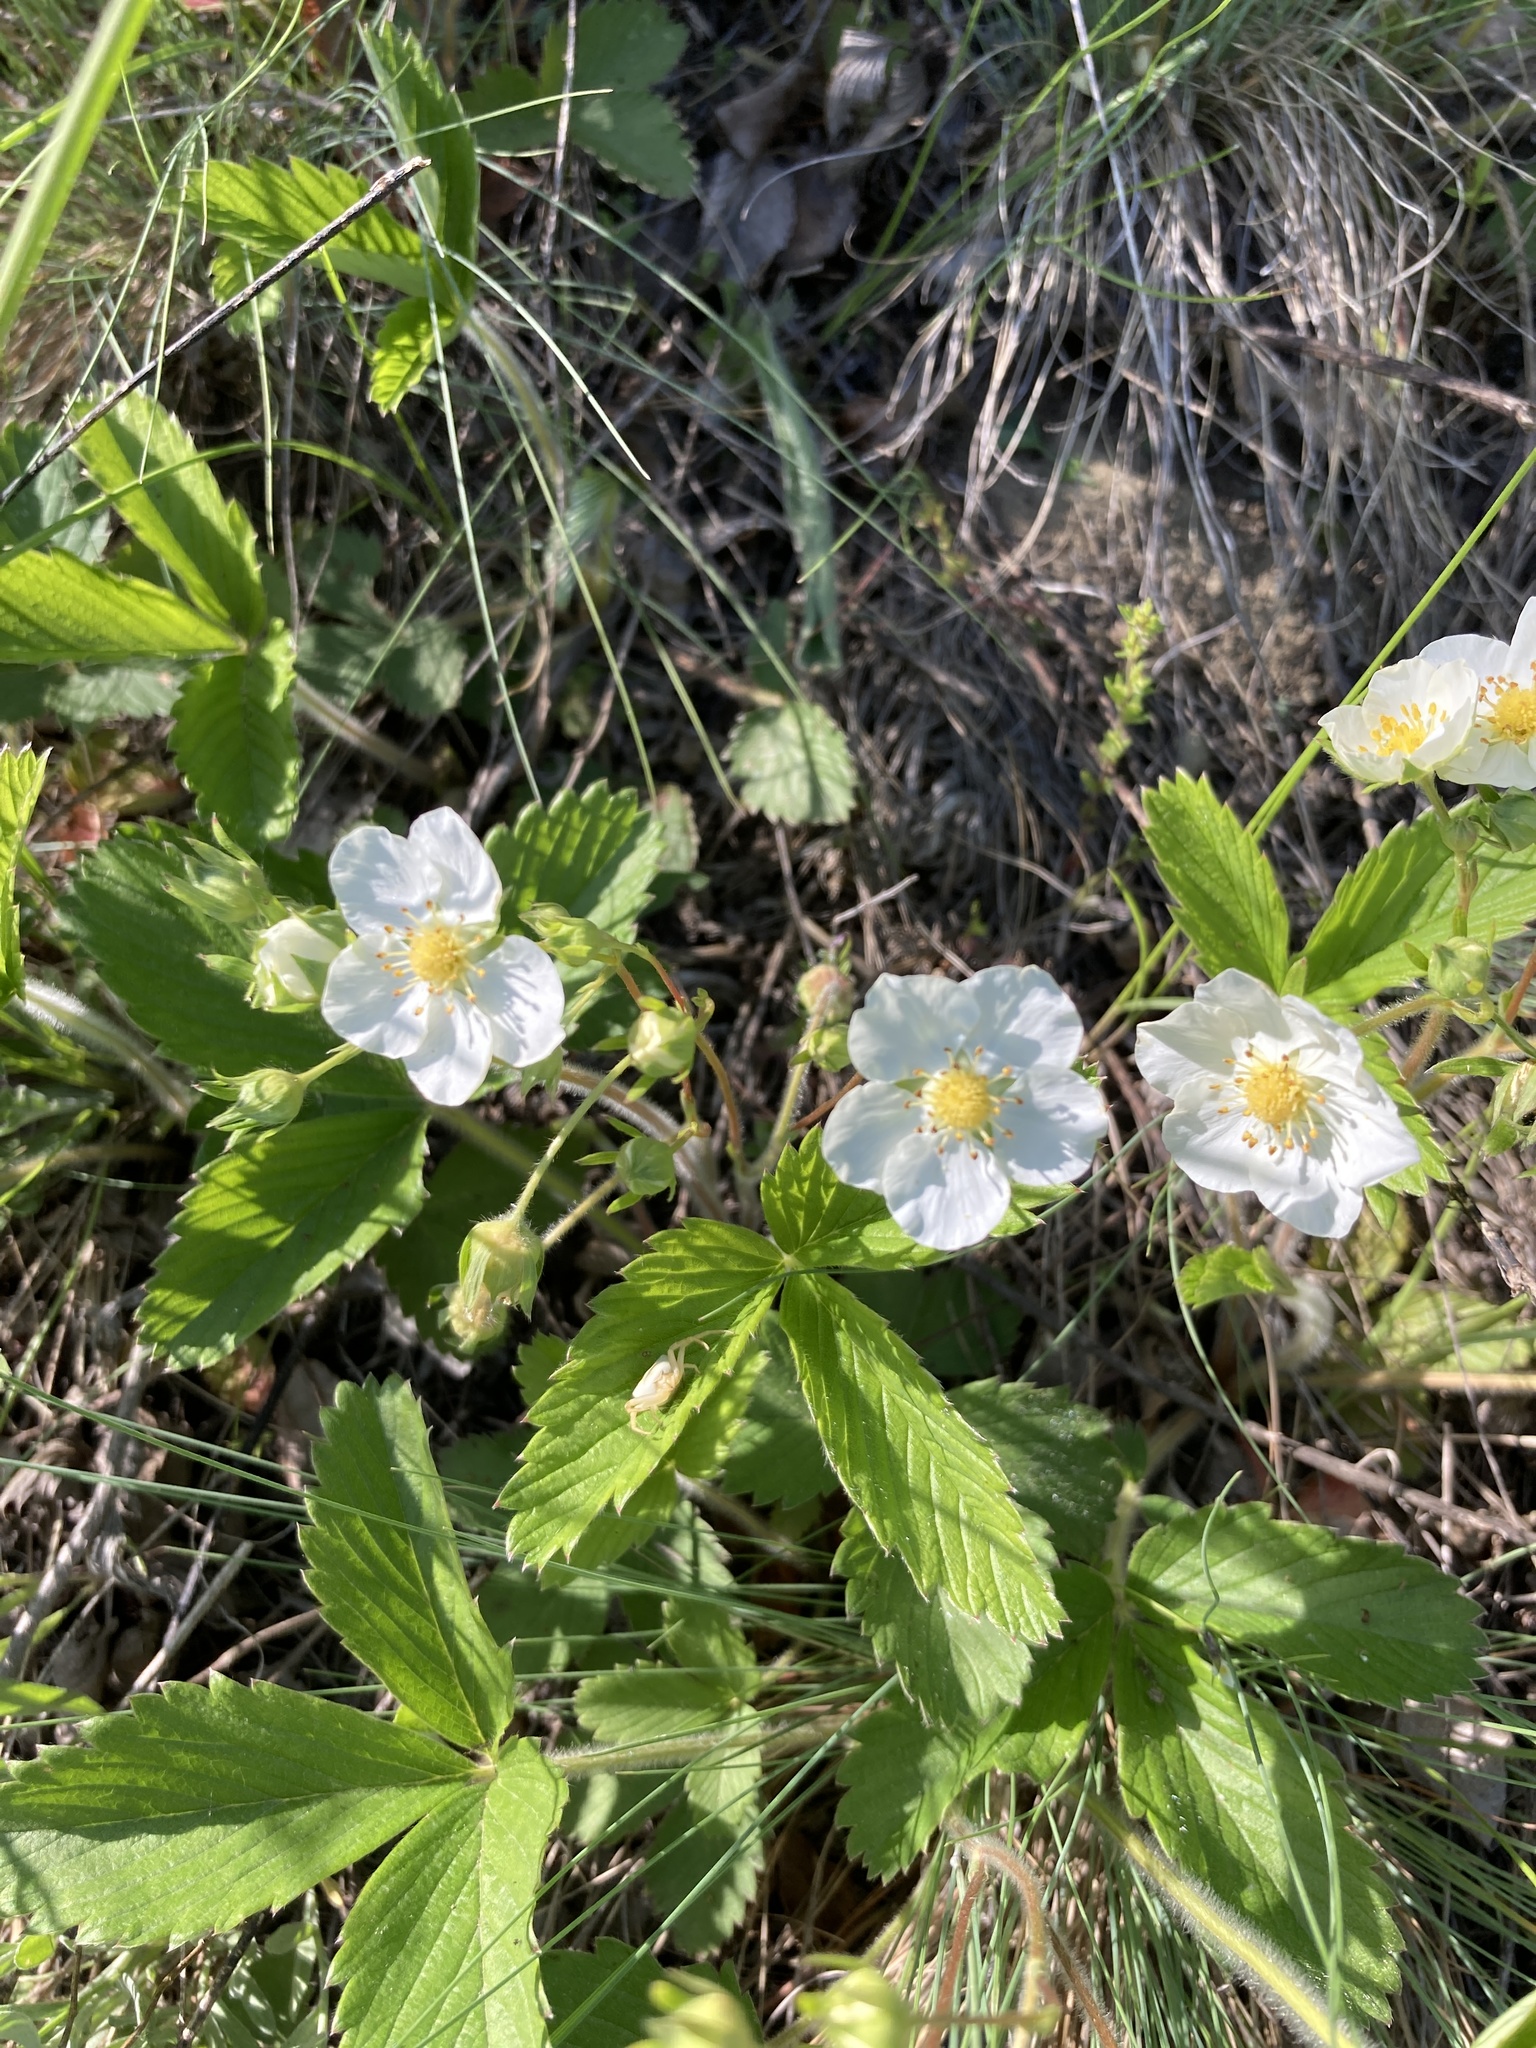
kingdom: Plantae
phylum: Tracheophyta
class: Magnoliopsida
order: Rosales
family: Rosaceae
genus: Fragaria
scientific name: Fragaria viridis
